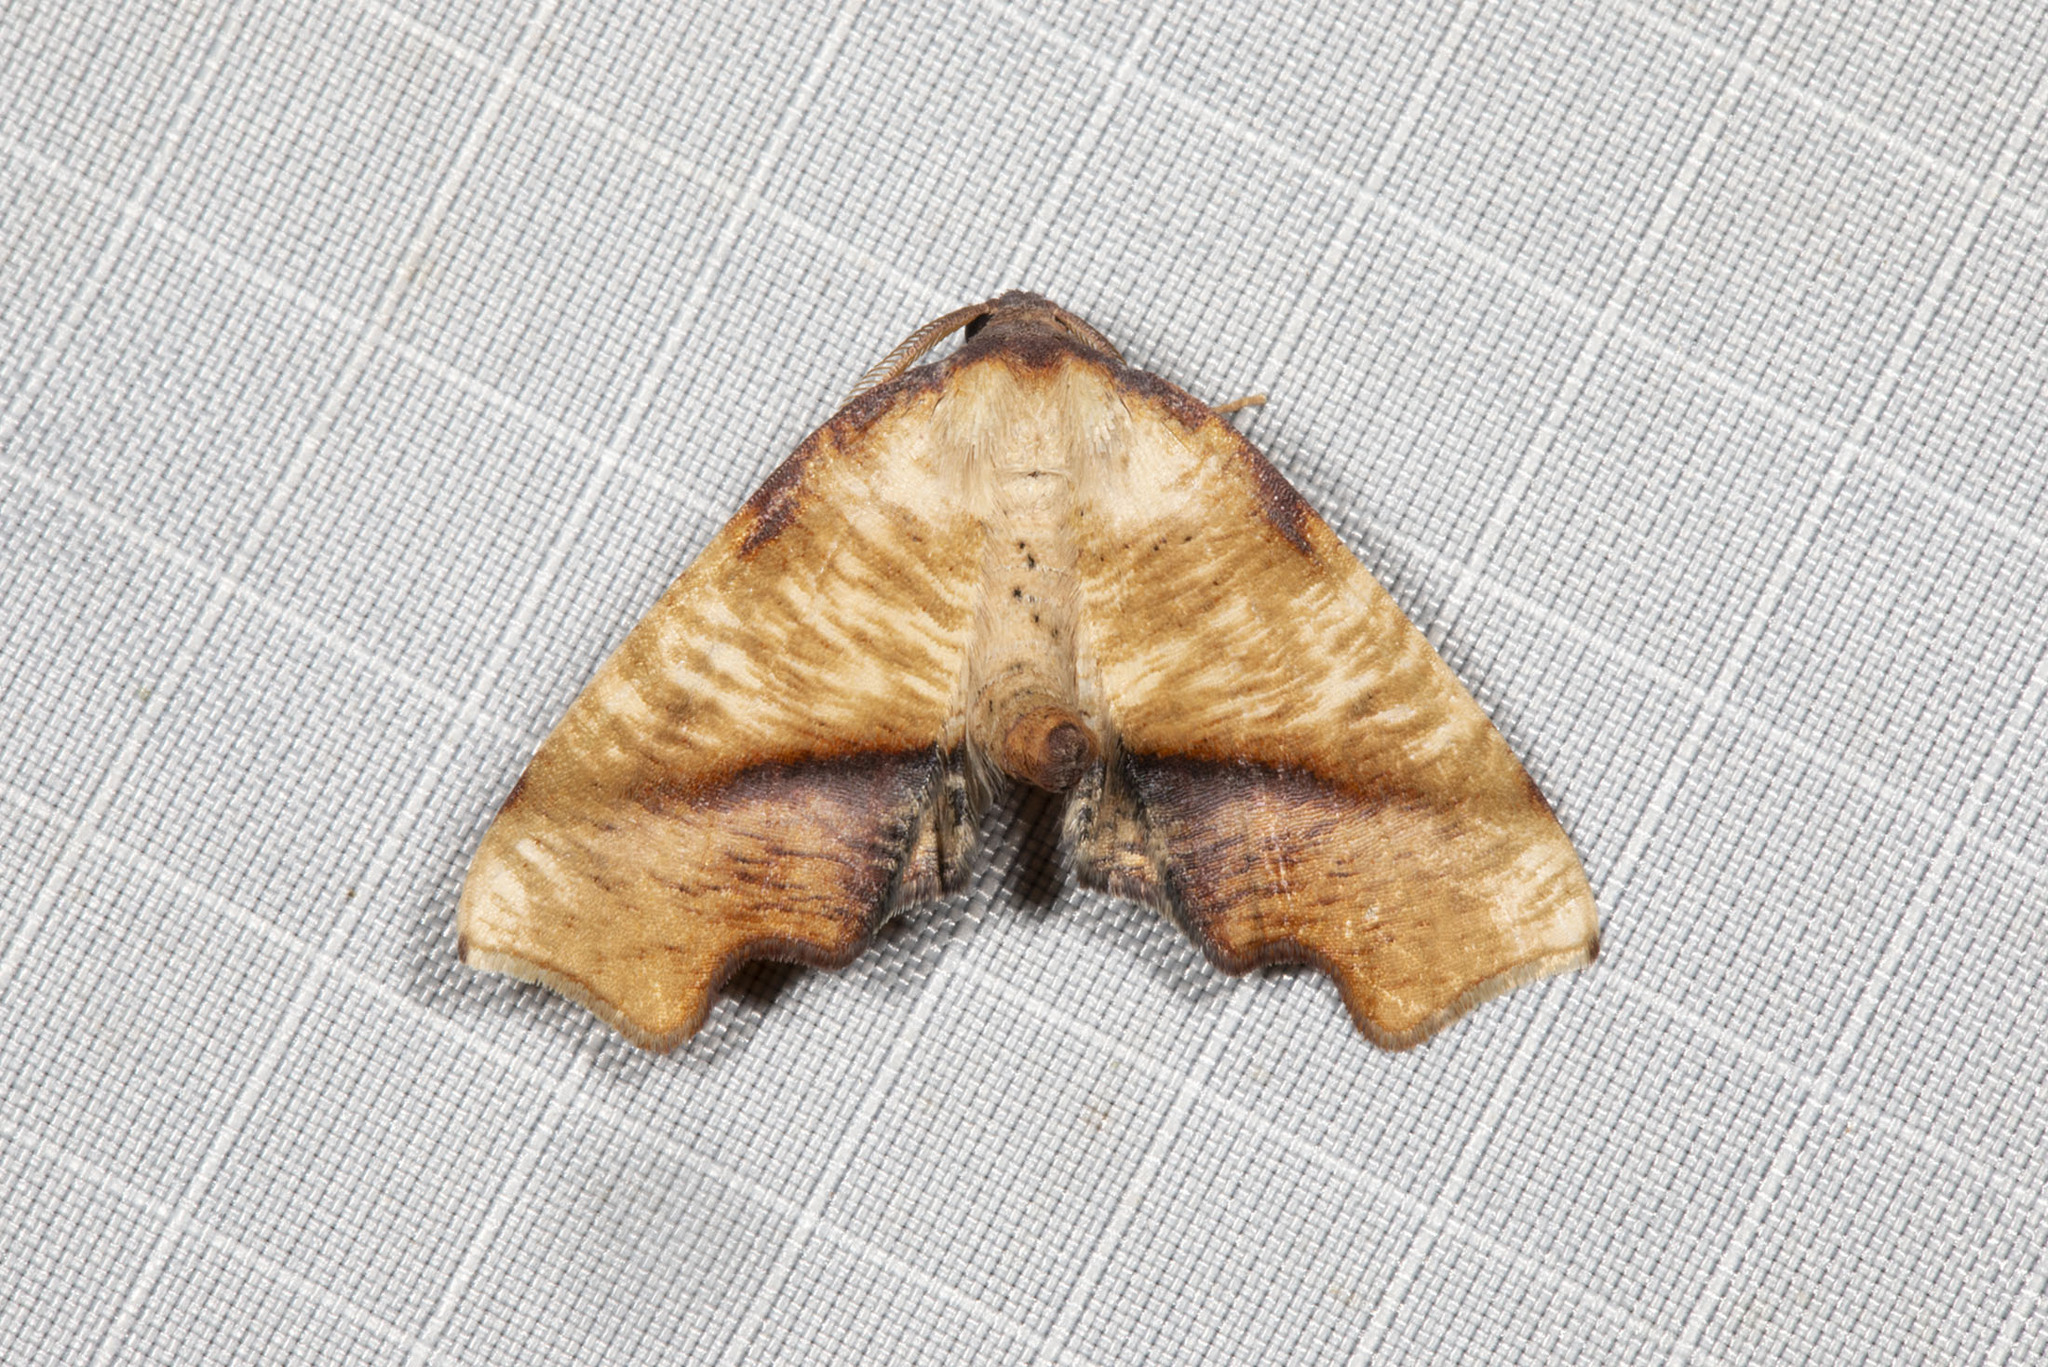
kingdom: Animalia
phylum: Arthropoda
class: Insecta
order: Lepidoptera
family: Geometridae
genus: Plagodis
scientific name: Plagodis fervidaria
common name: Fervid plagodis
